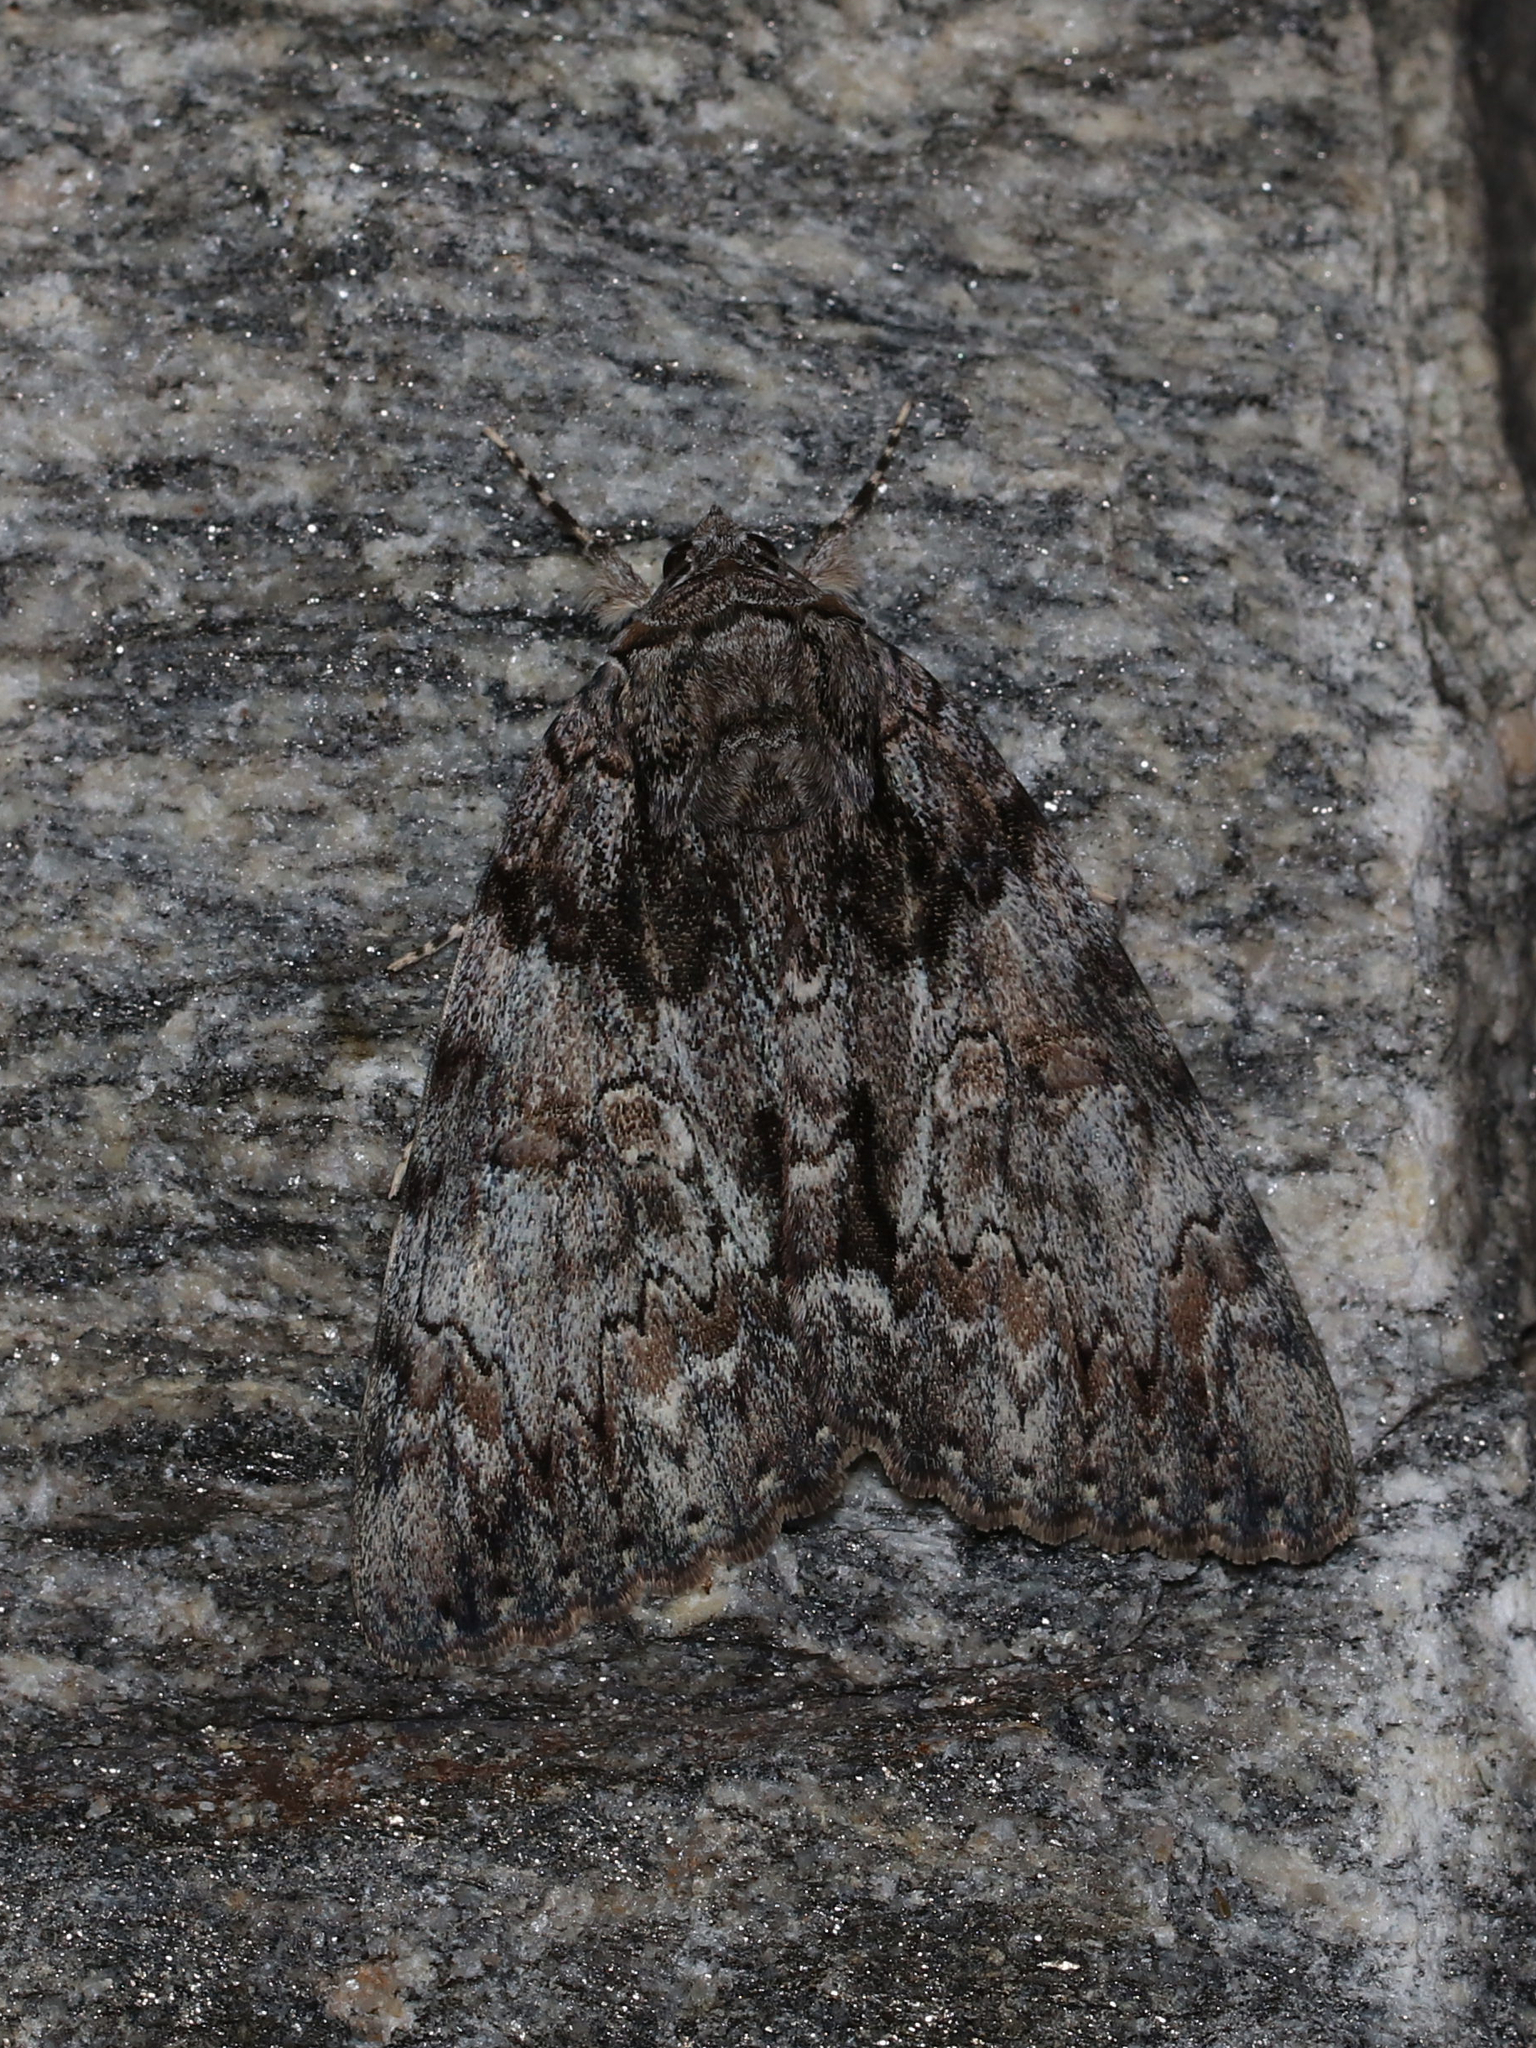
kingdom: Animalia
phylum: Arthropoda
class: Insecta
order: Lepidoptera
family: Erebidae
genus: Catocala
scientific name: Catocala palaeogama
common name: Oldwife underwing
